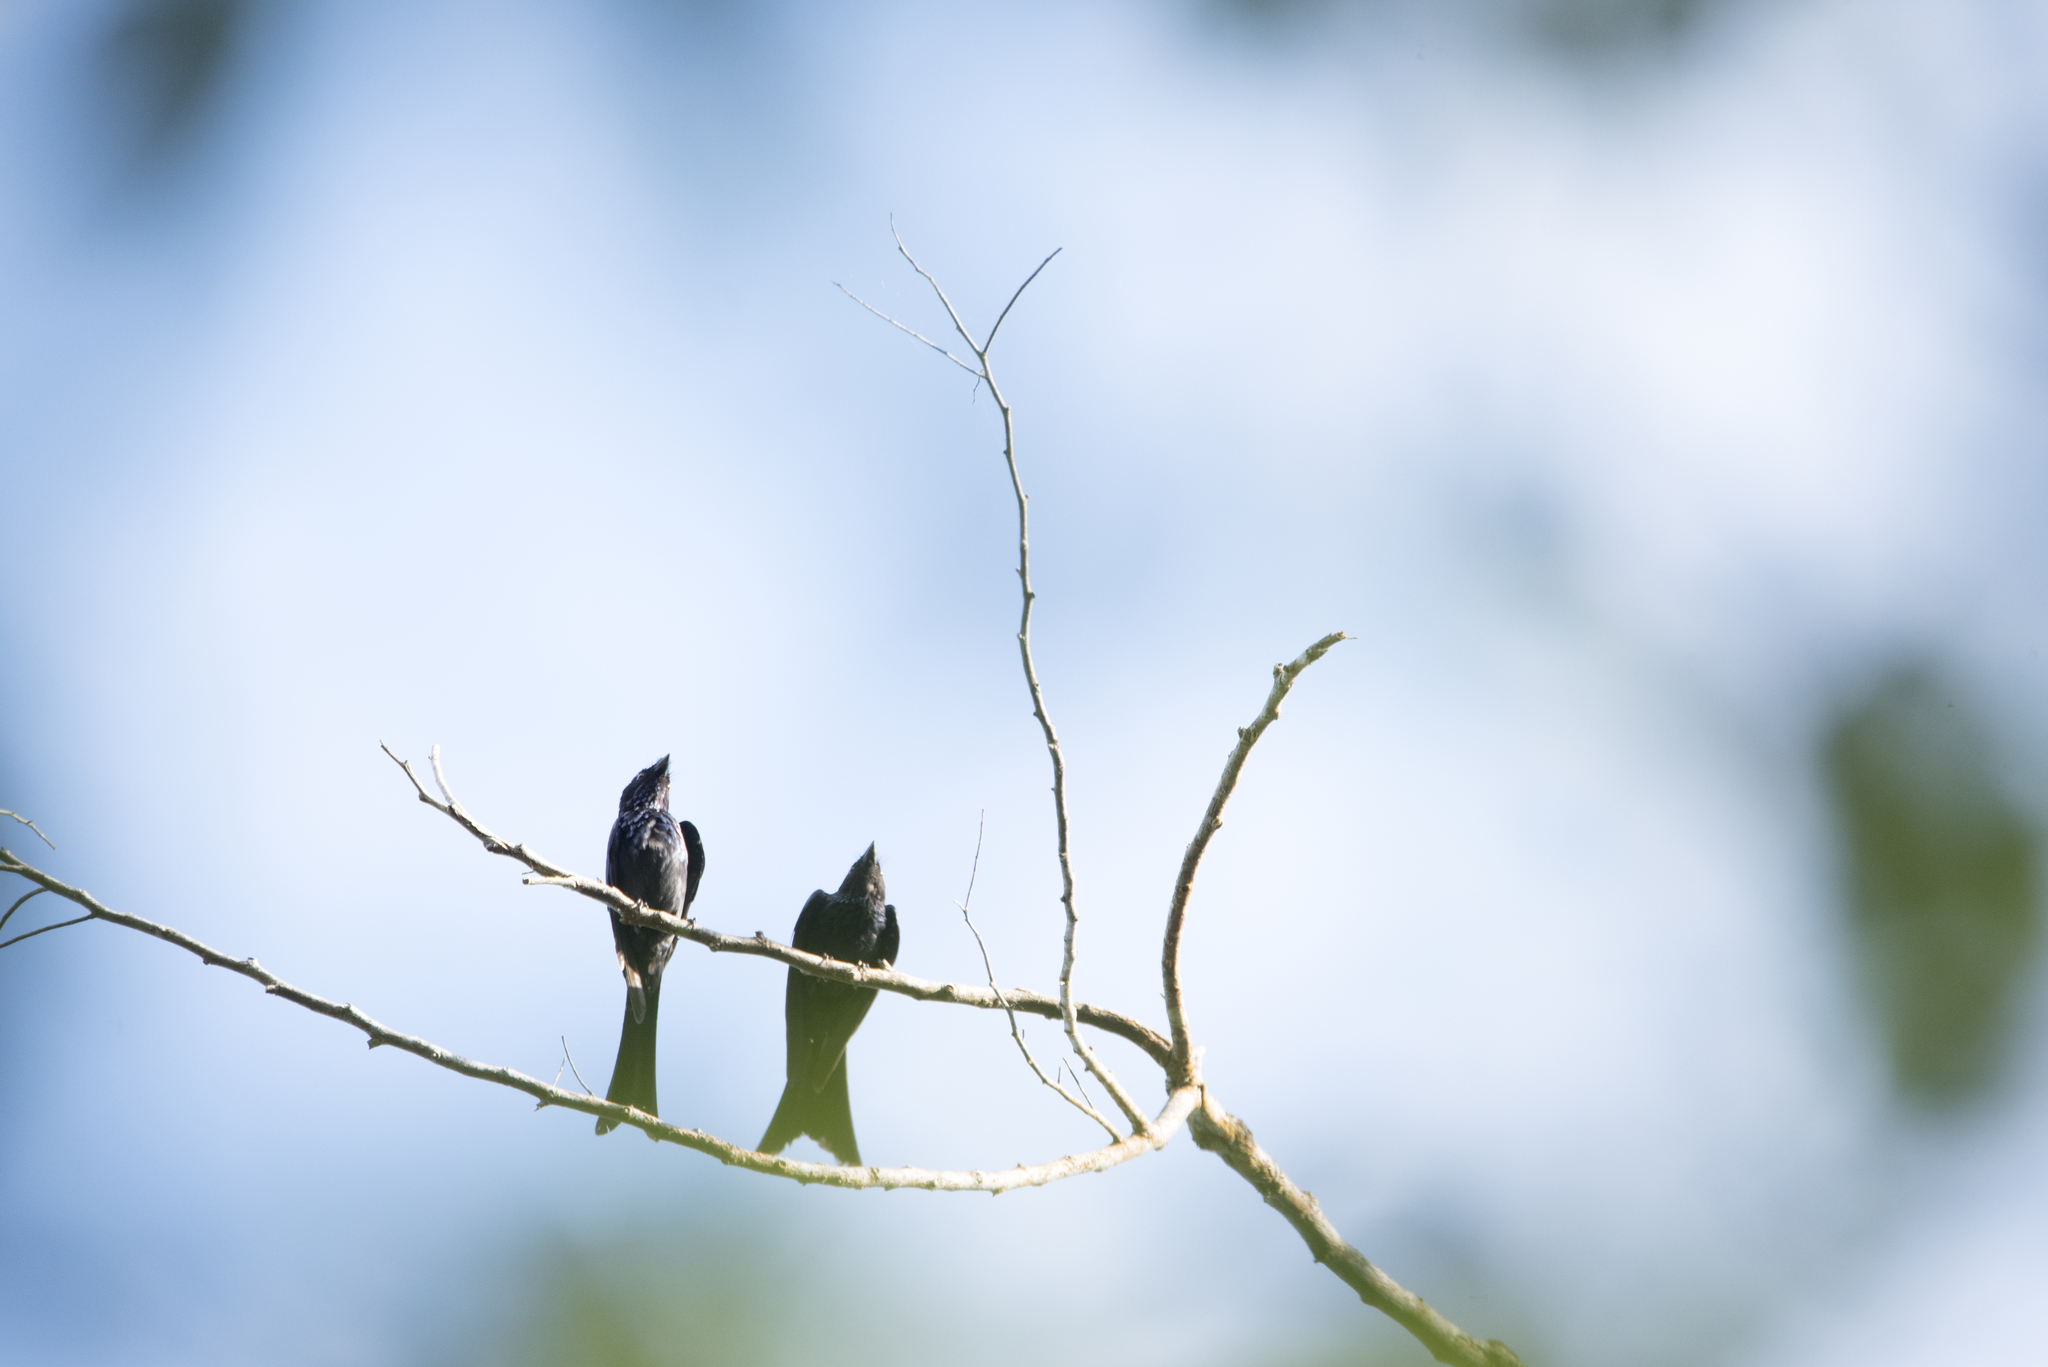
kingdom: Animalia
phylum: Chordata
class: Aves
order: Passeriformes
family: Dicruridae
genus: Dicrurus
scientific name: Dicrurus aeneus
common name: Bronzed drongo
